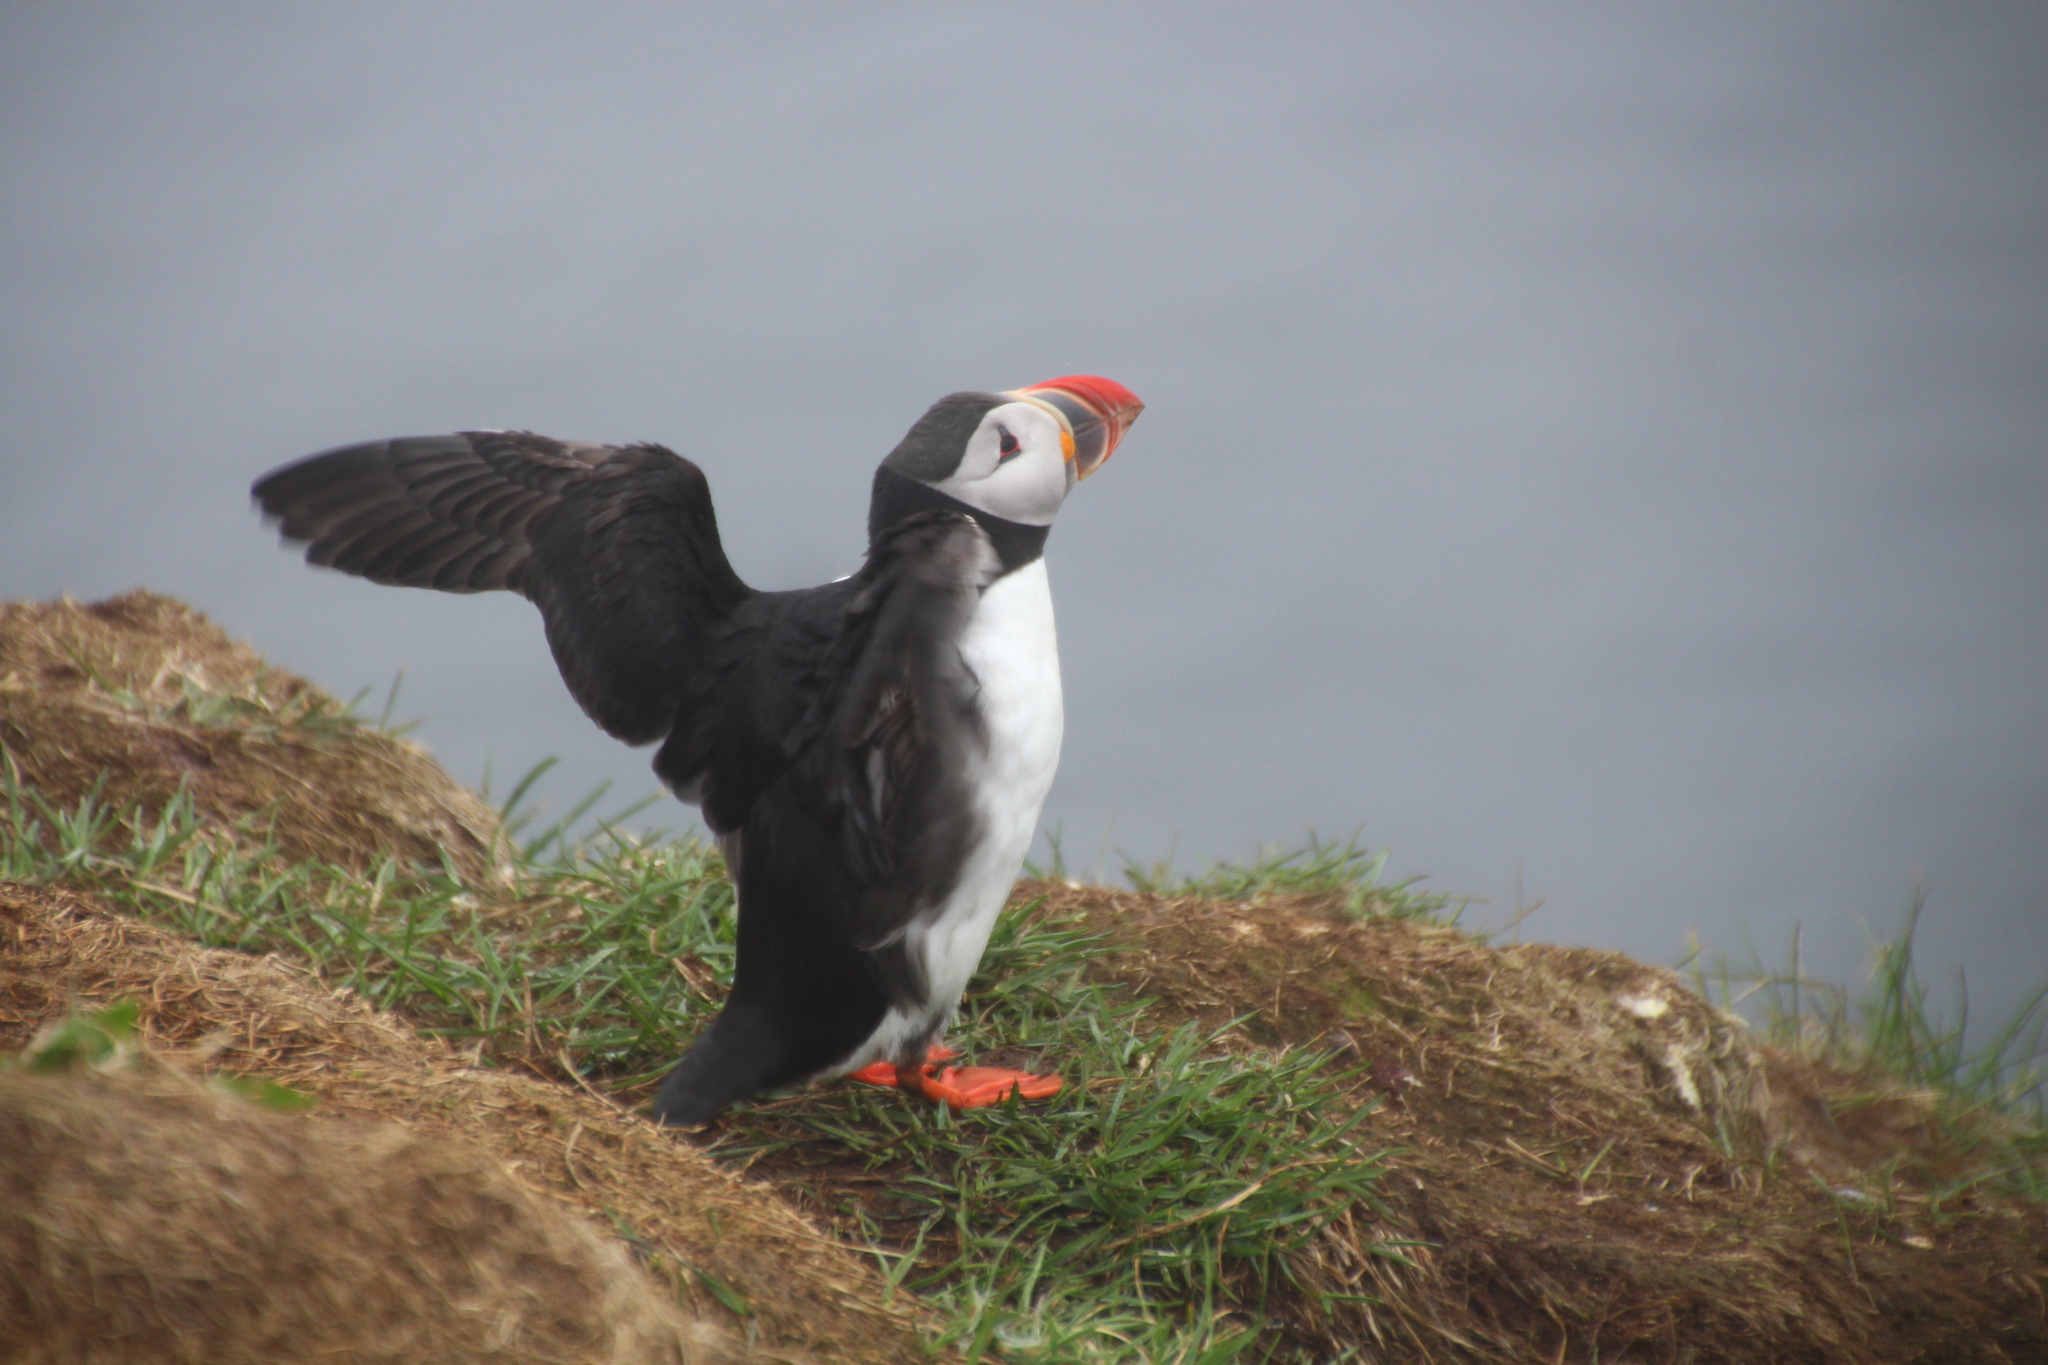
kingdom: Animalia
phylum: Chordata
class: Aves
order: Charadriiformes
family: Alcidae
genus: Fratercula
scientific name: Fratercula arctica
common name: Atlantic puffin
